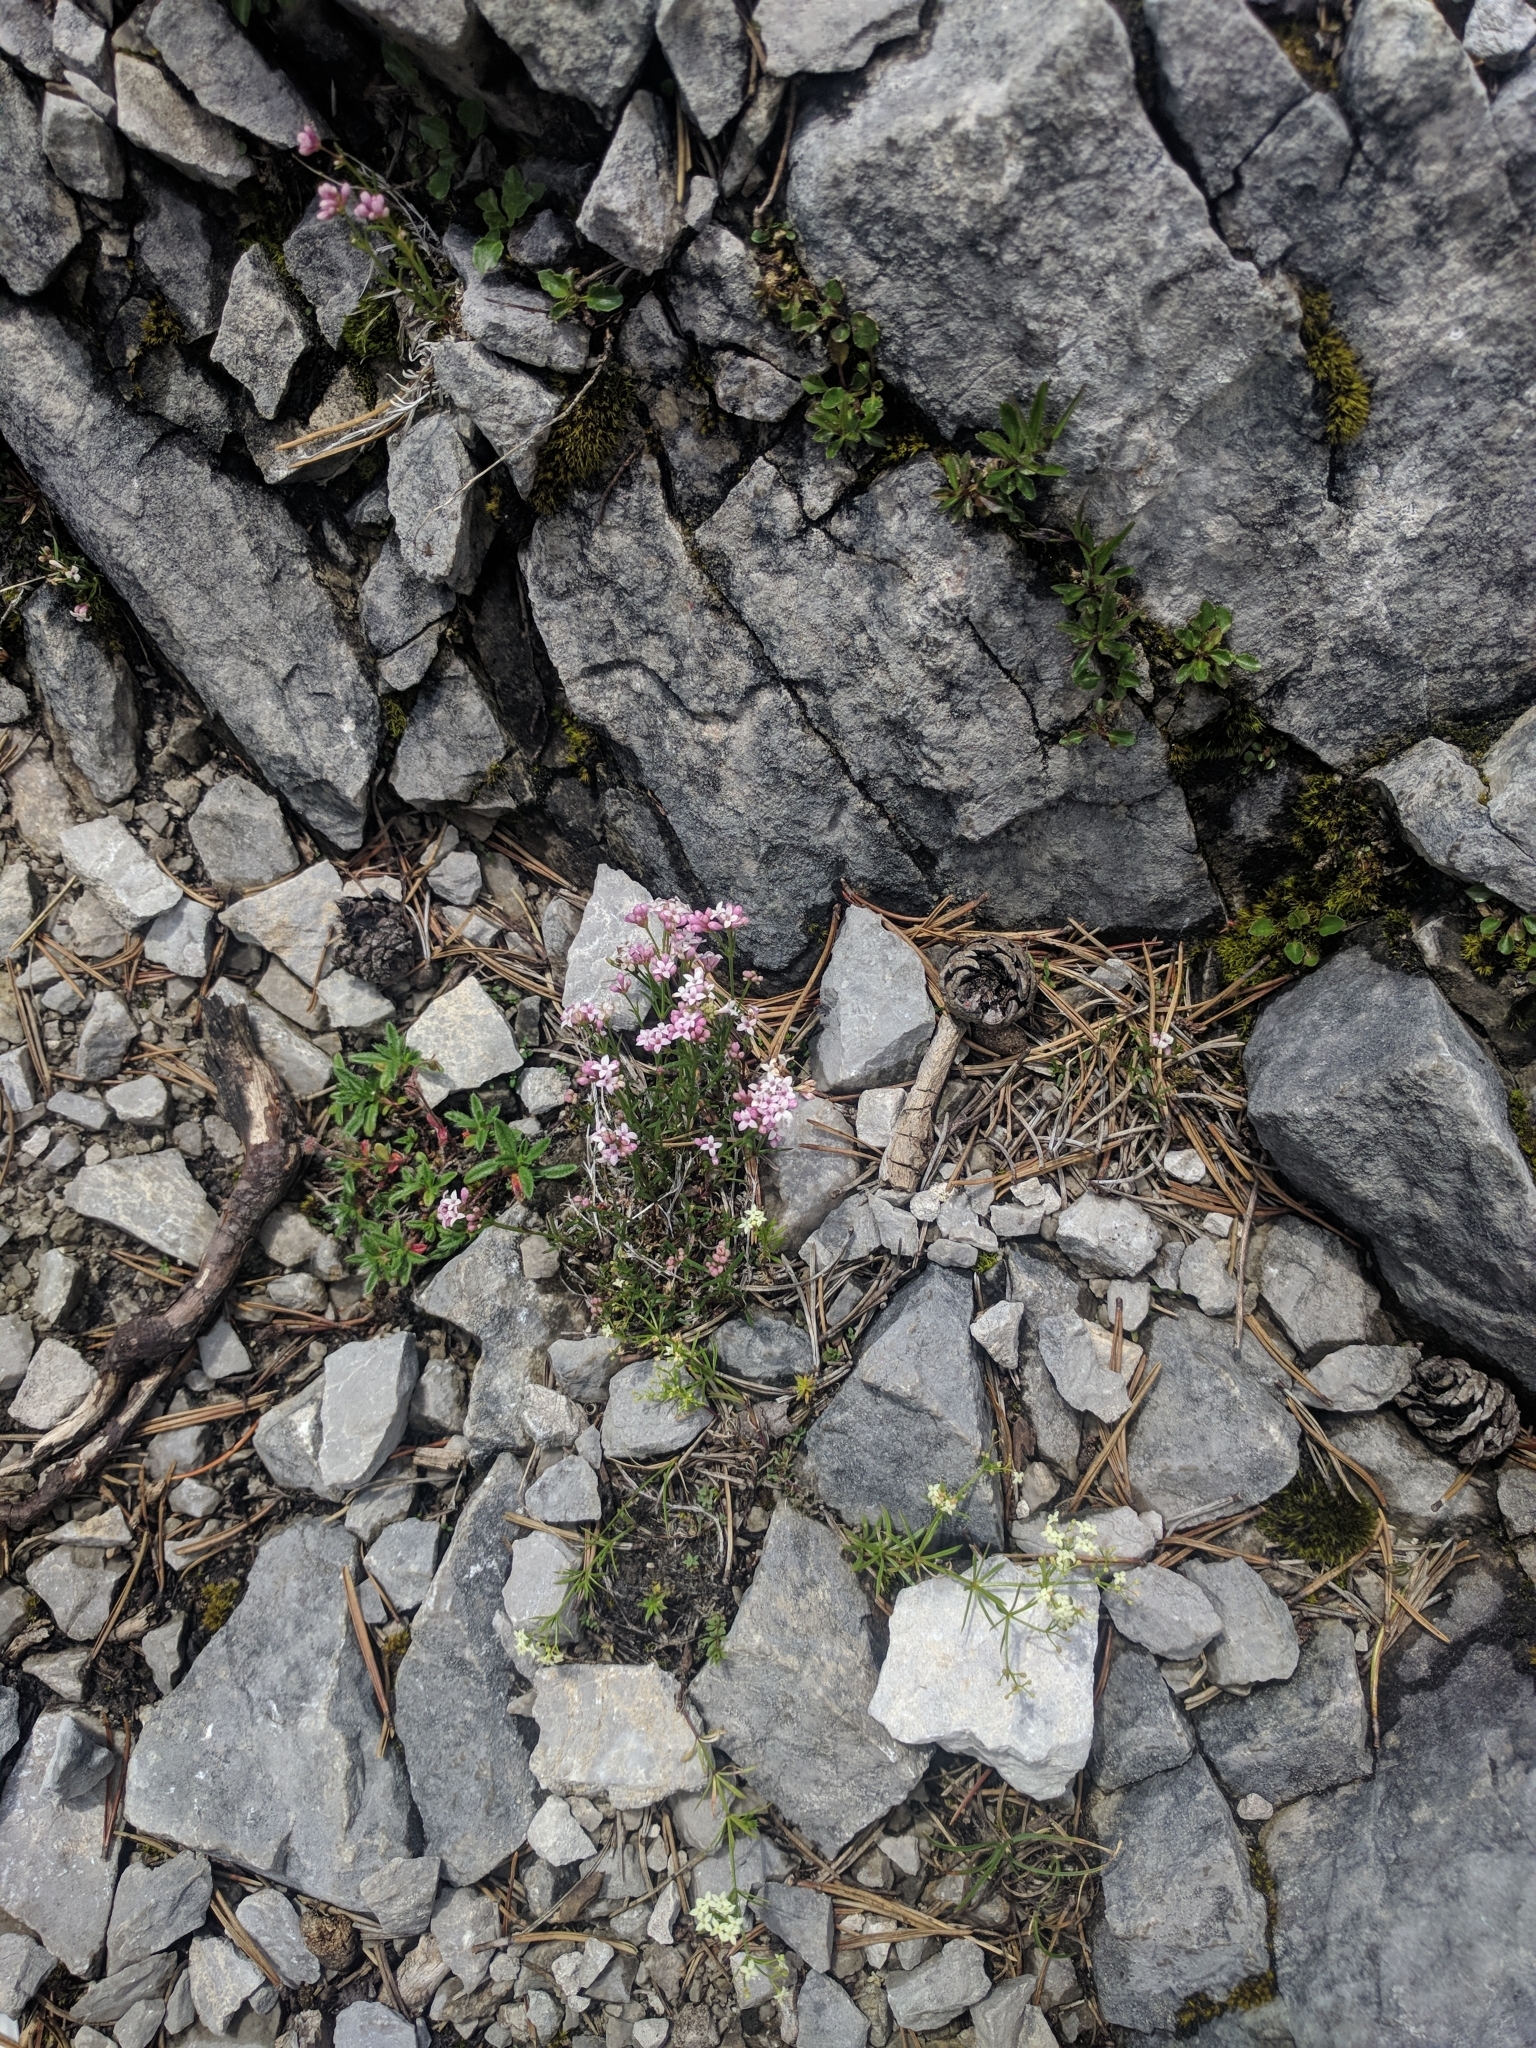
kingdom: Plantae
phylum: Tracheophyta
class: Magnoliopsida
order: Gentianales
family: Rubiaceae
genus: Cynanchica
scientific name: Cynanchica neilreichii
